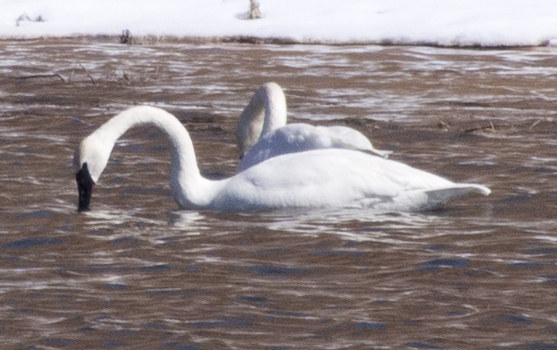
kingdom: Animalia
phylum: Chordata
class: Aves
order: Anseriformes
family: Anatidae
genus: Cygnus
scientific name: Cygnus buccinator
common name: Trumpeter swan
